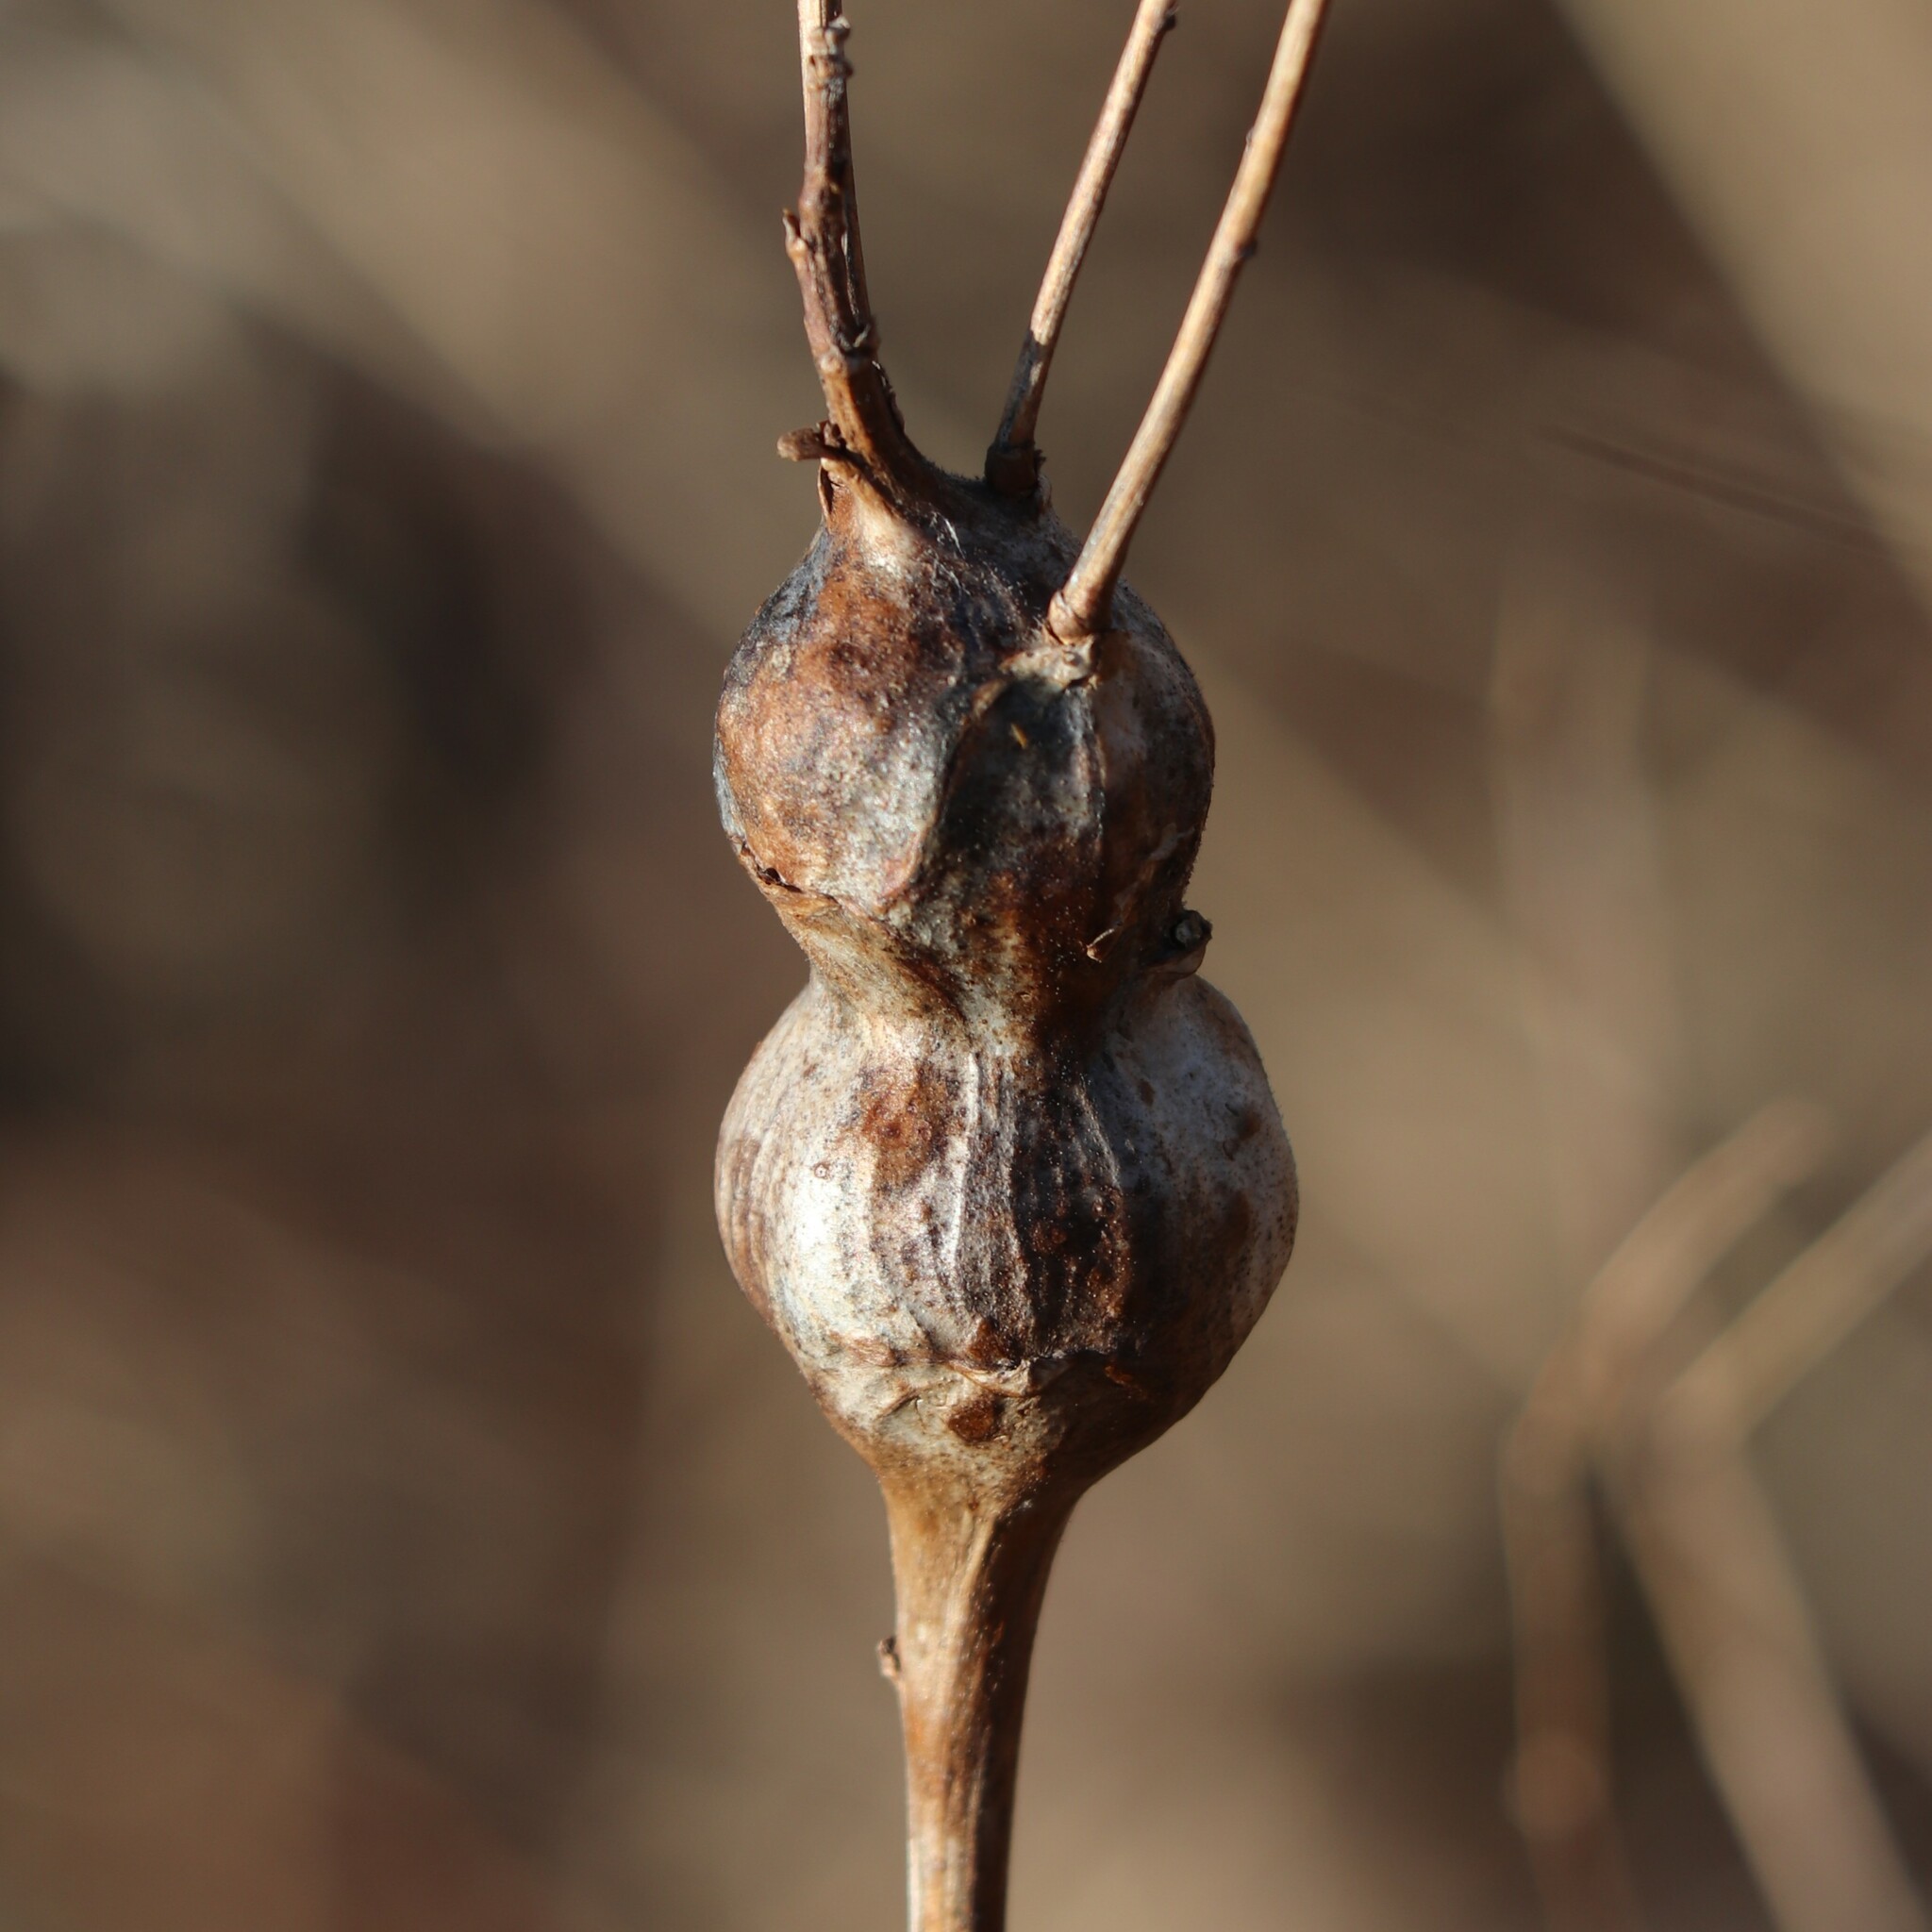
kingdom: Animalia
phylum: Arthropoda
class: Insecta
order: Diptera
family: Tephritidae
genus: Eurosta
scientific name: Eurosta solidaginis
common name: Goldenrod gall fly
